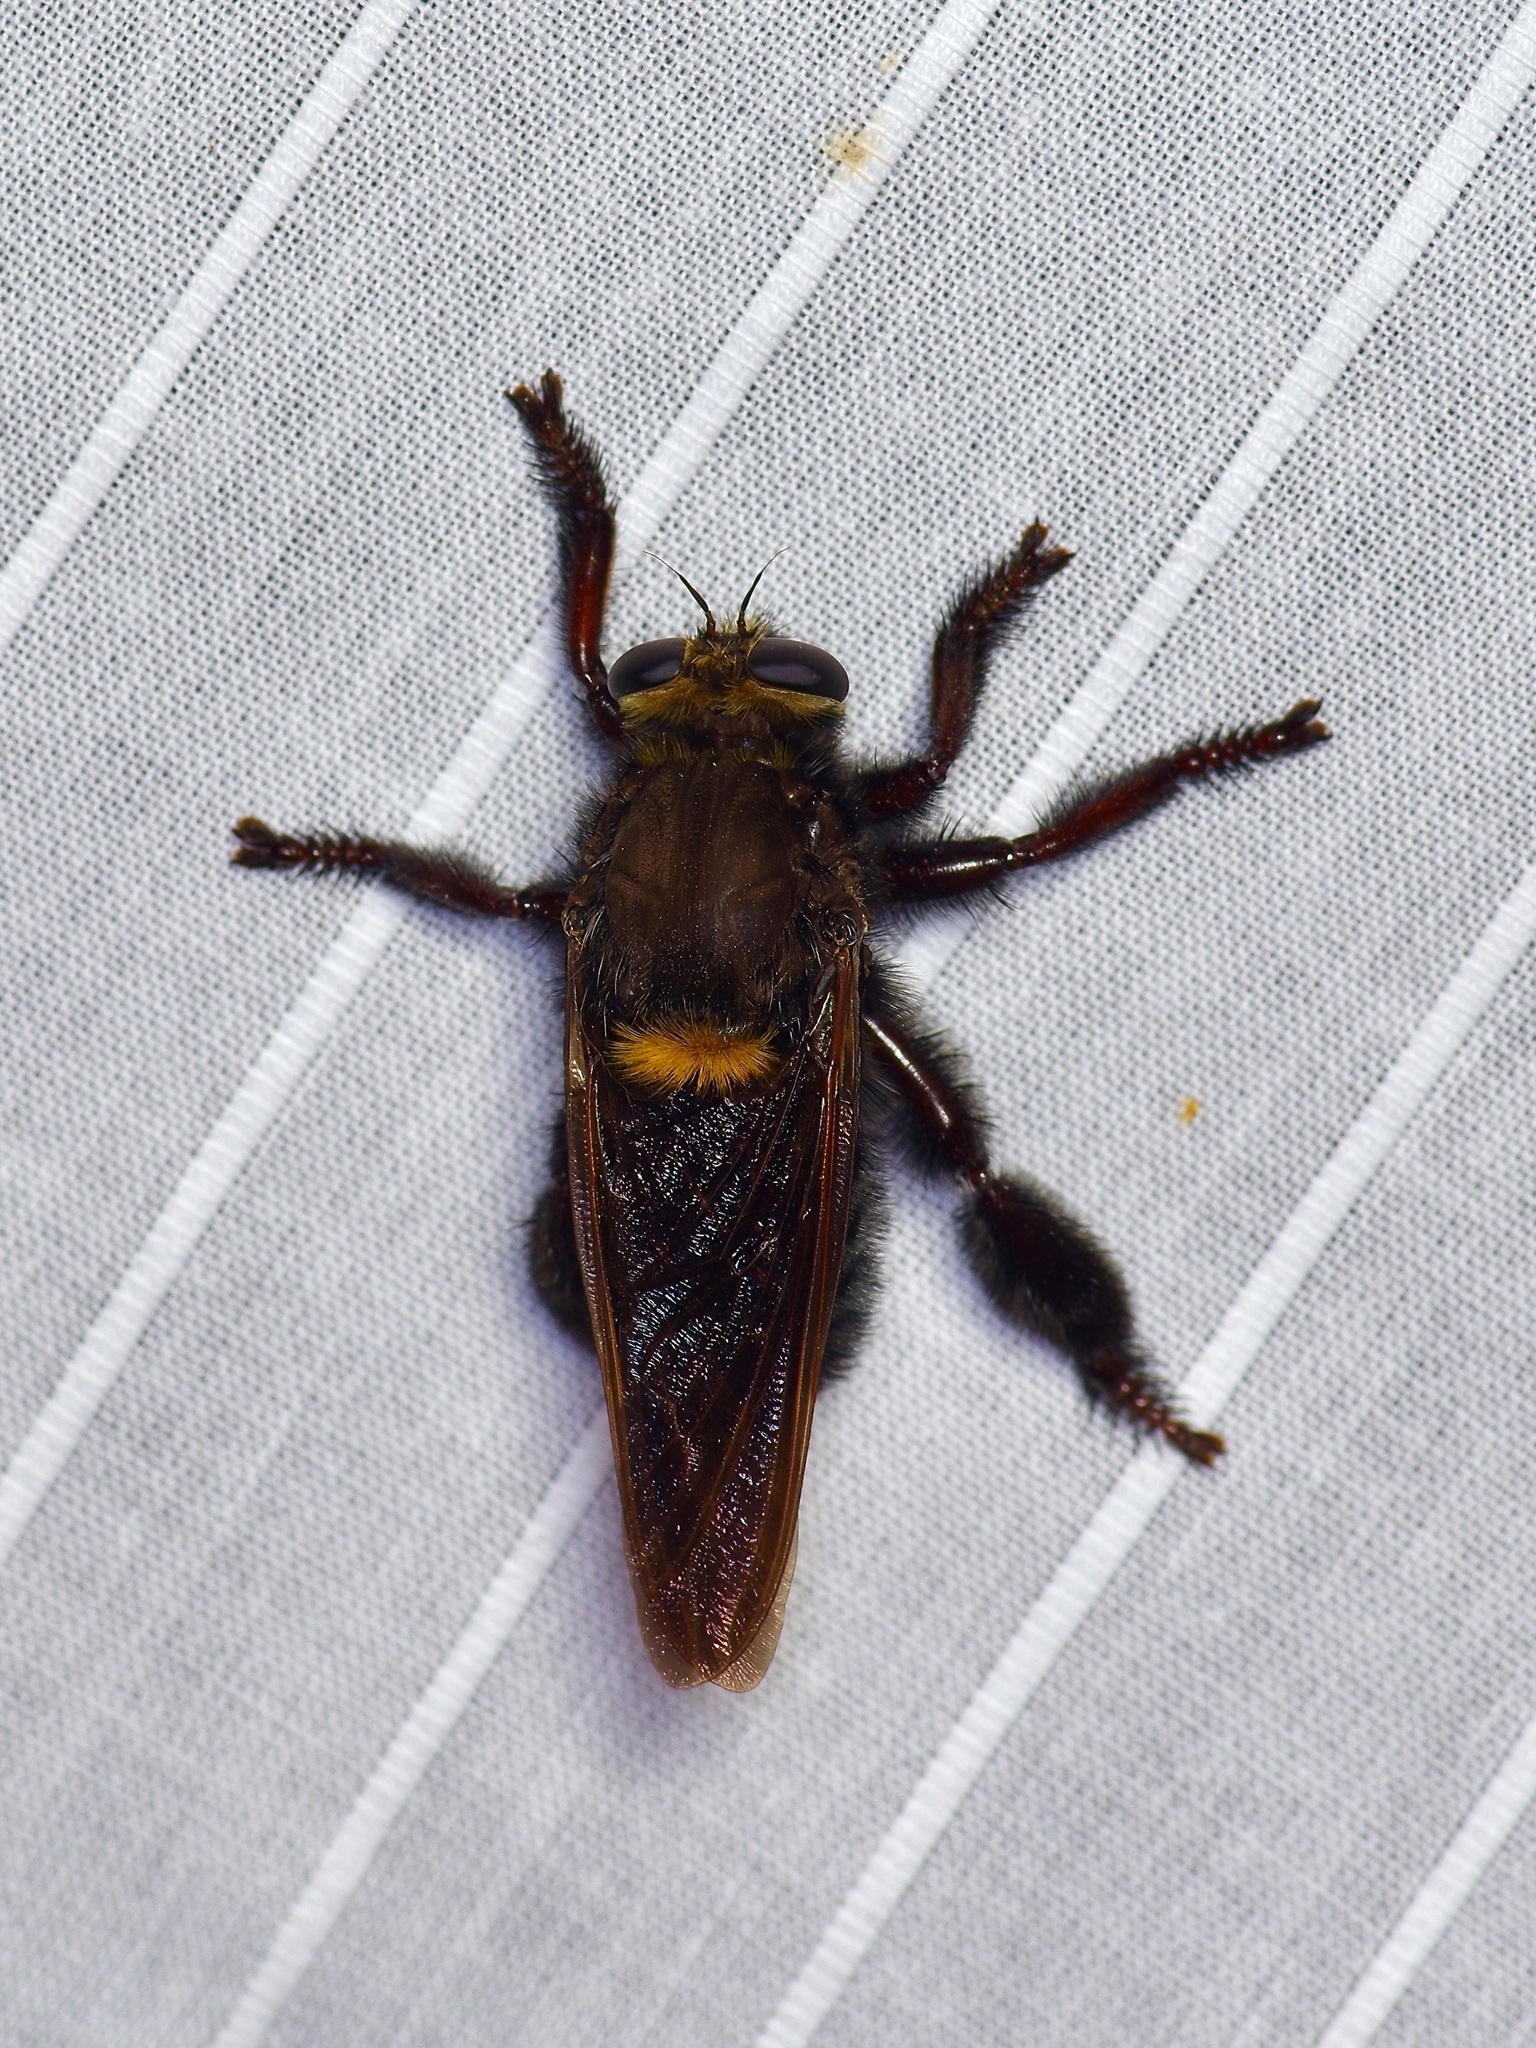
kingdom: Animalia
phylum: Arthropoda
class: Insecta
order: Diptera
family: Asilidae
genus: Mallophora
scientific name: Mallophora leschenaultii
